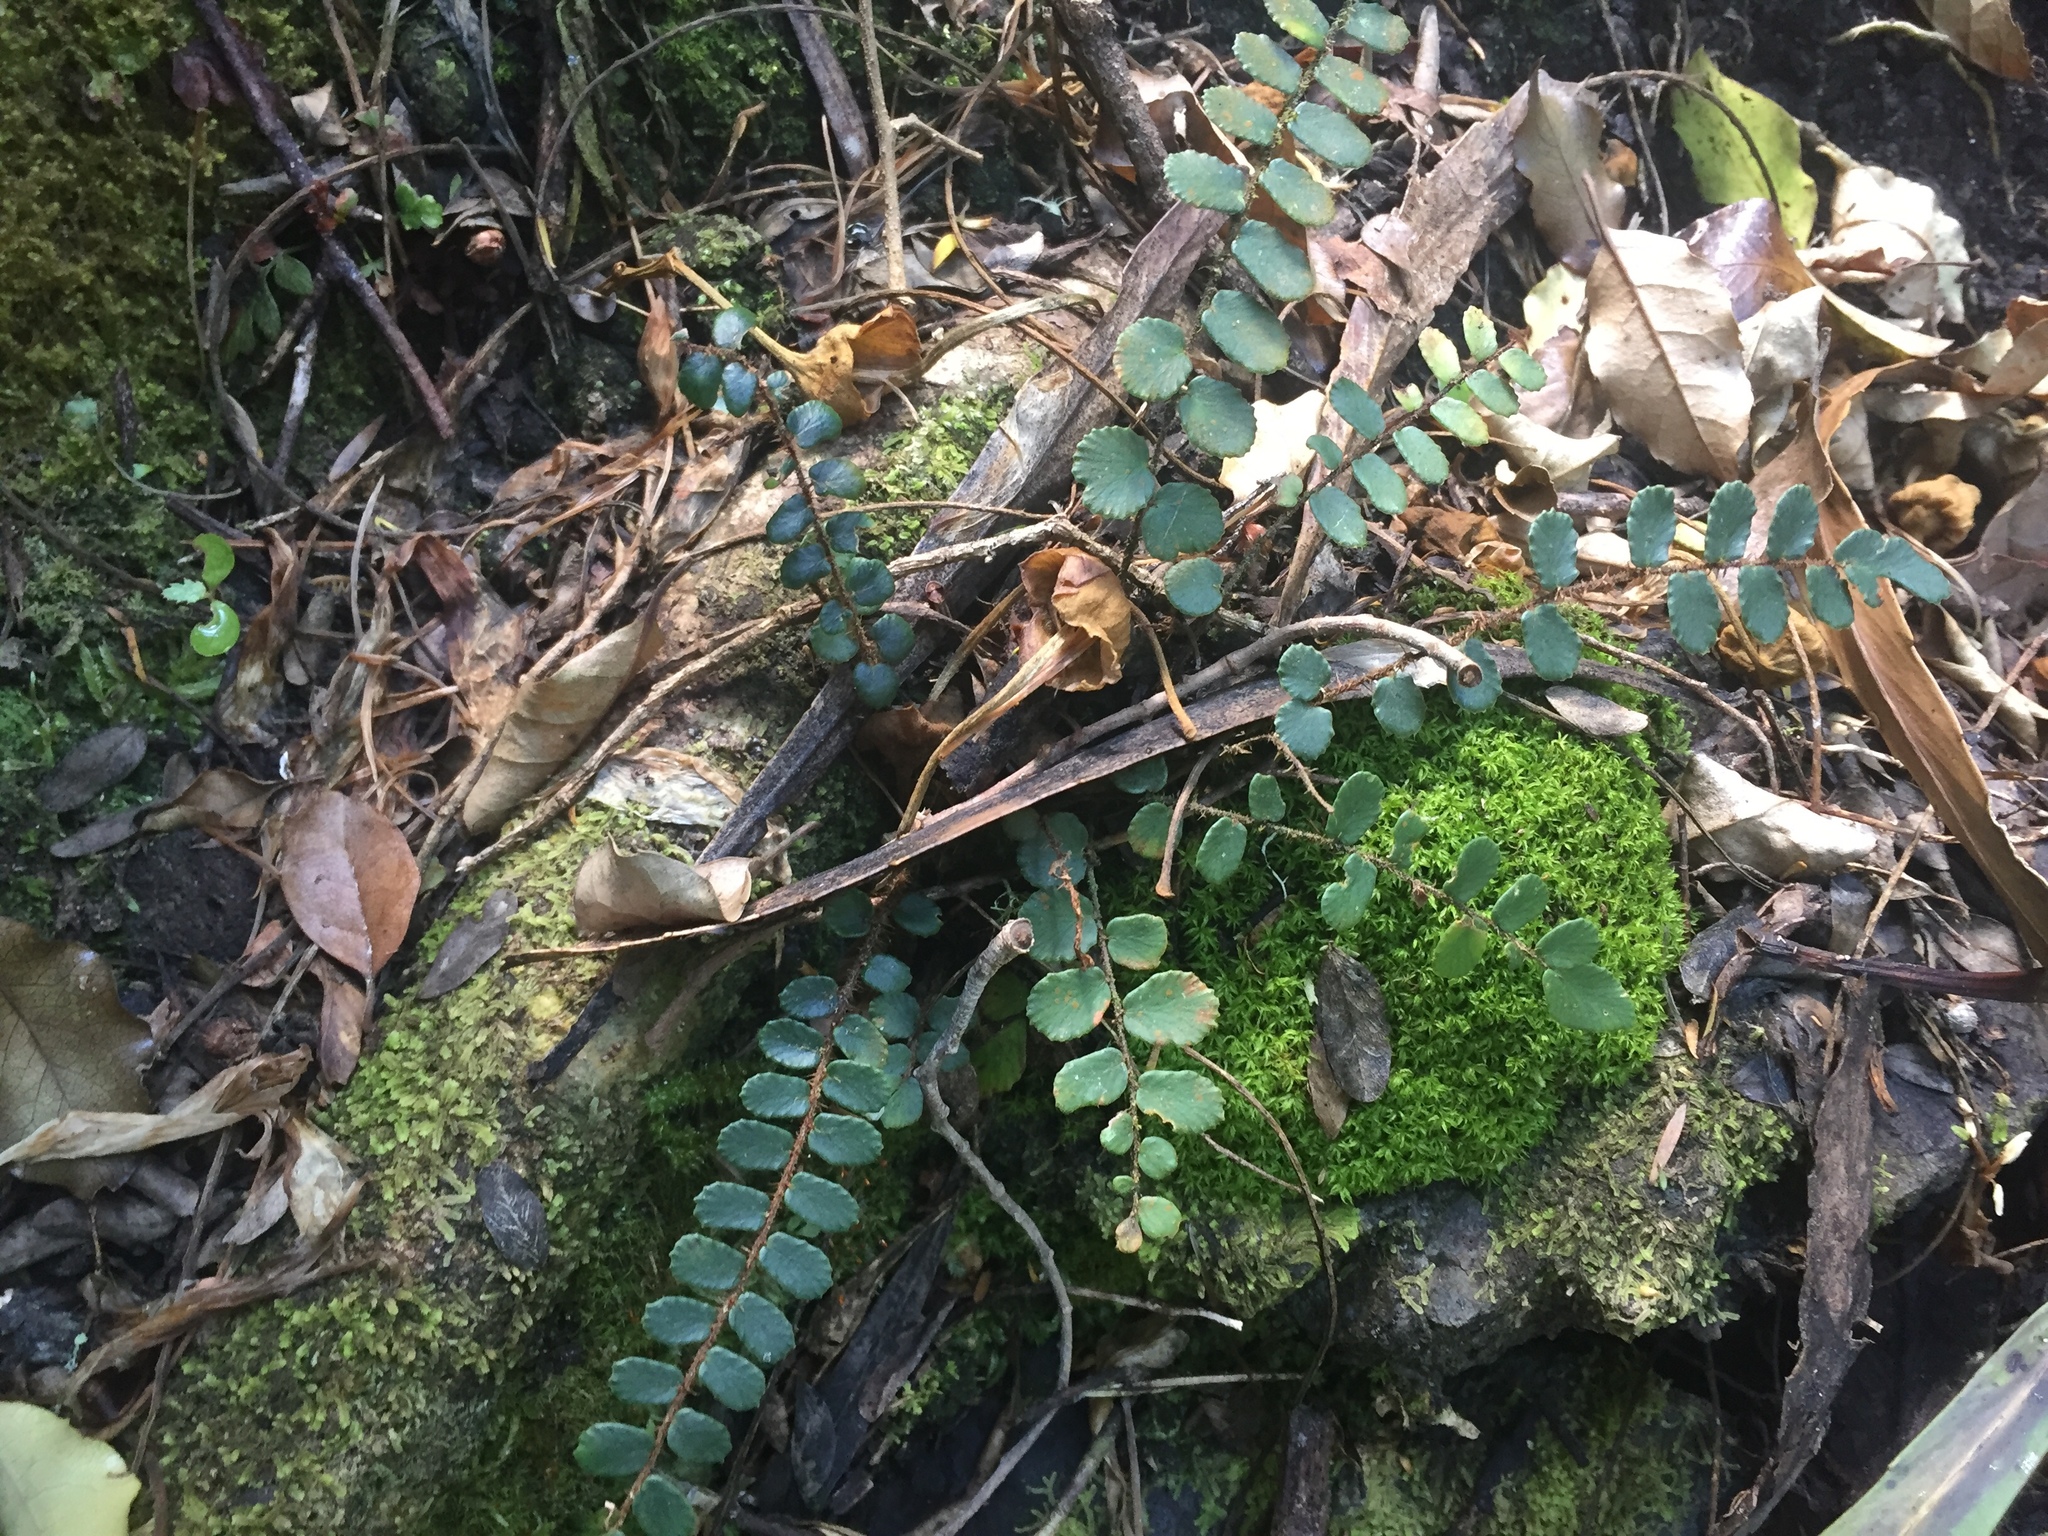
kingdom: Plantae
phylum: Tracheophyta
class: Polypodiopsida
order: Polypodiales
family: Pteridaceae
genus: Pellaea
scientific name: Pellaea rotundifolia
